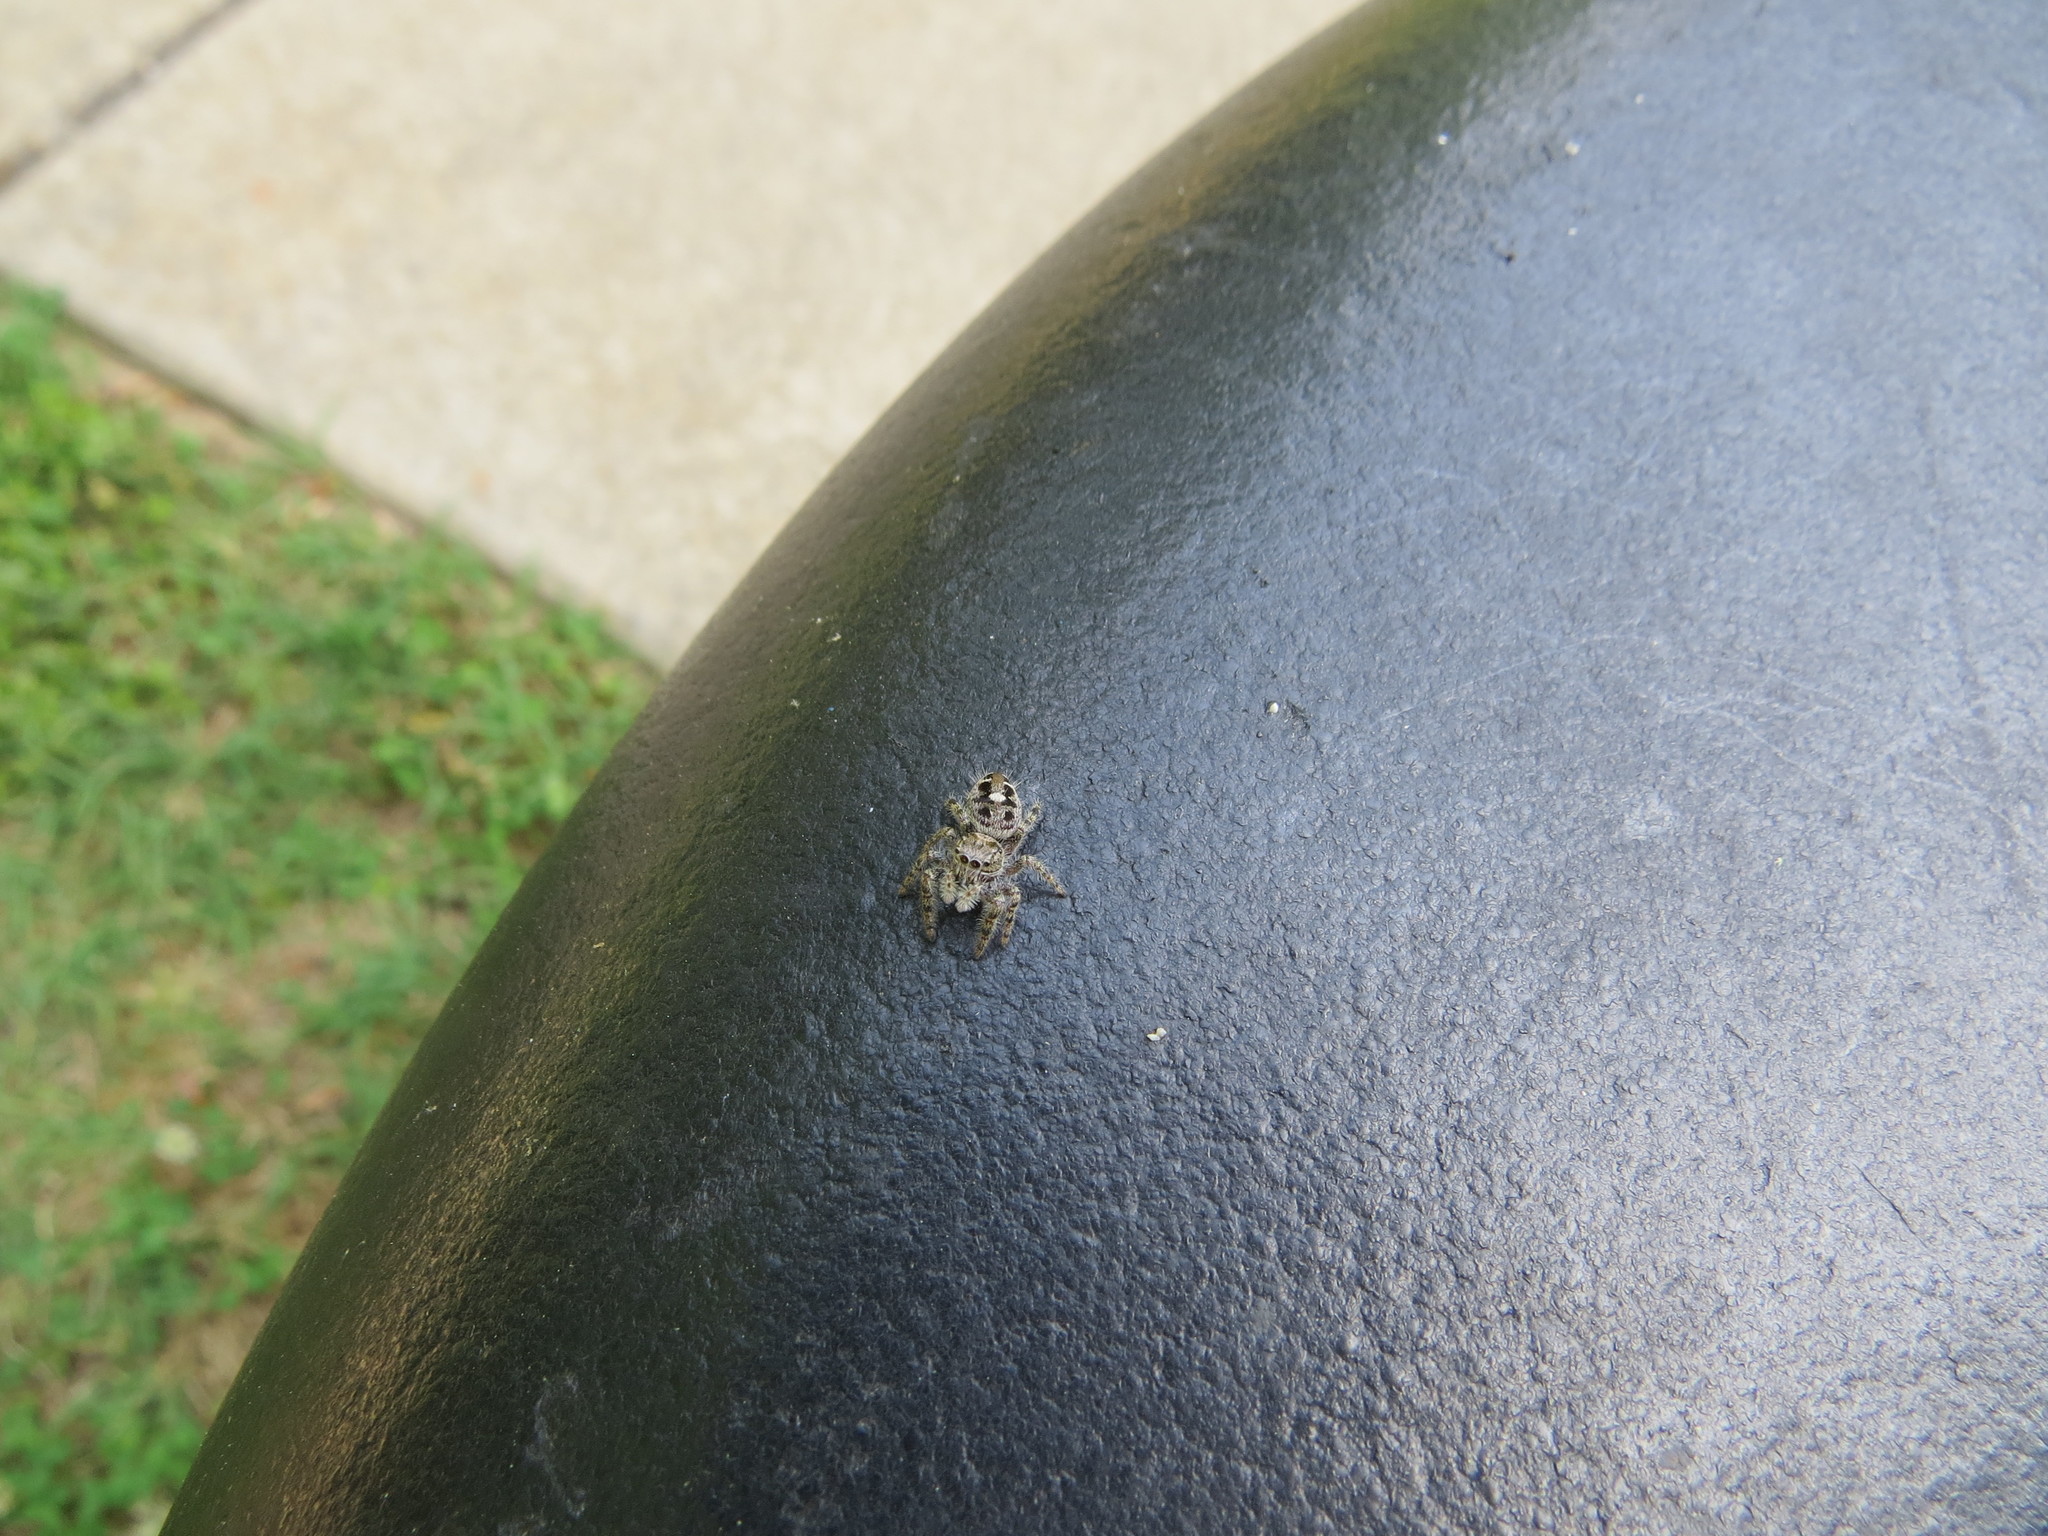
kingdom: Animalia
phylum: Arthropoda
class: Arachnida
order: Araneae
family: Salticidae
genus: Phidippus
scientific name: Phidippus putnami
